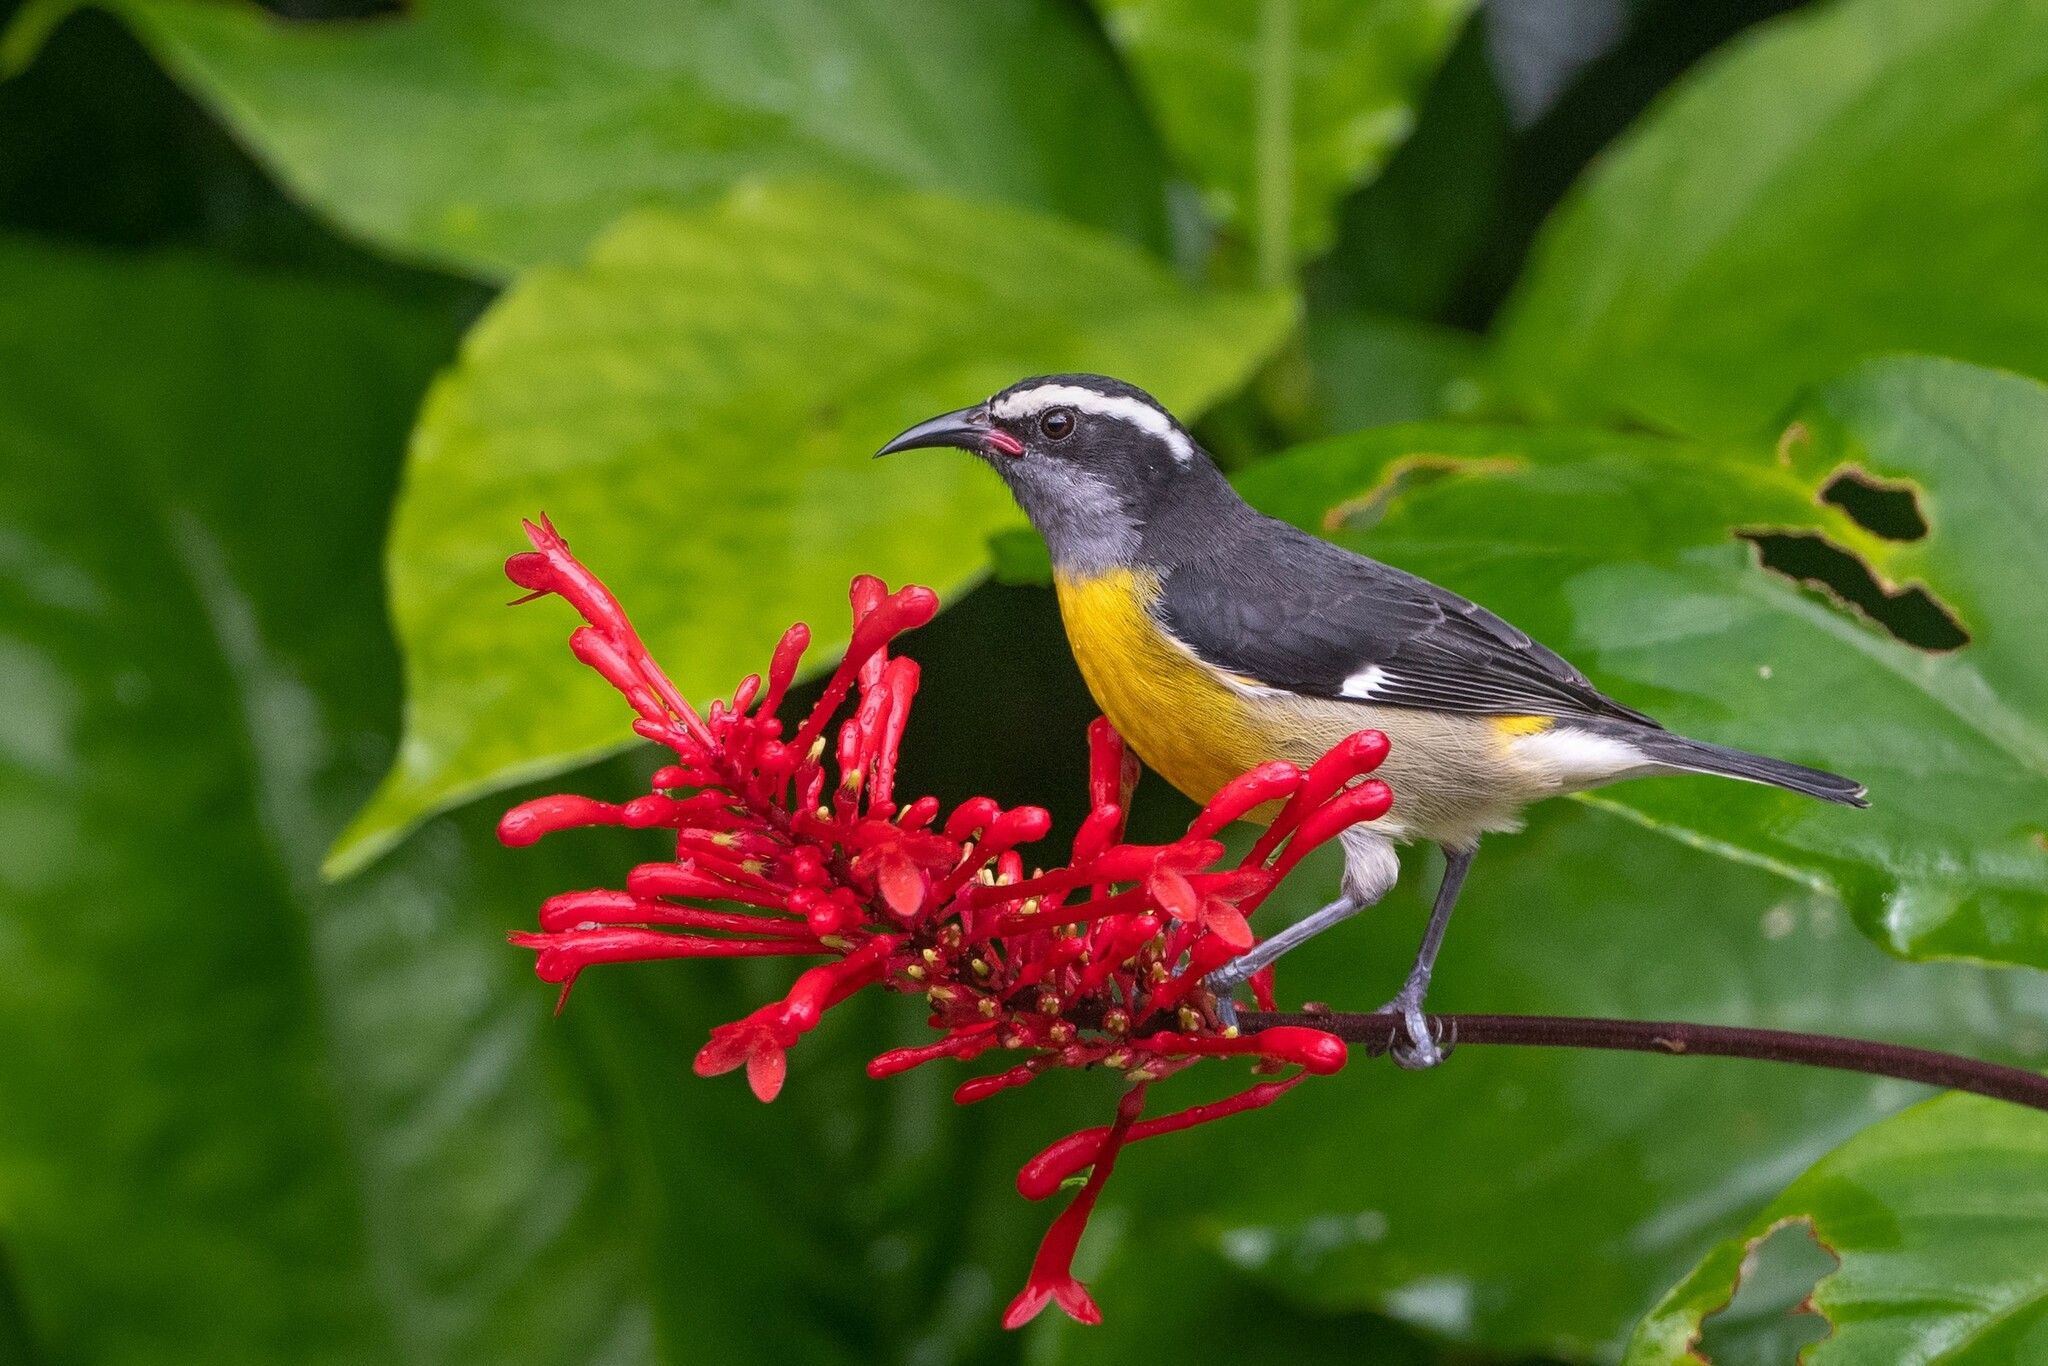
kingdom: Animalia
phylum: Chordata
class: Aves
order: Passeriformes
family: Thraupidae
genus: Coereba
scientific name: Coereba flaveola
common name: Bananaquit
